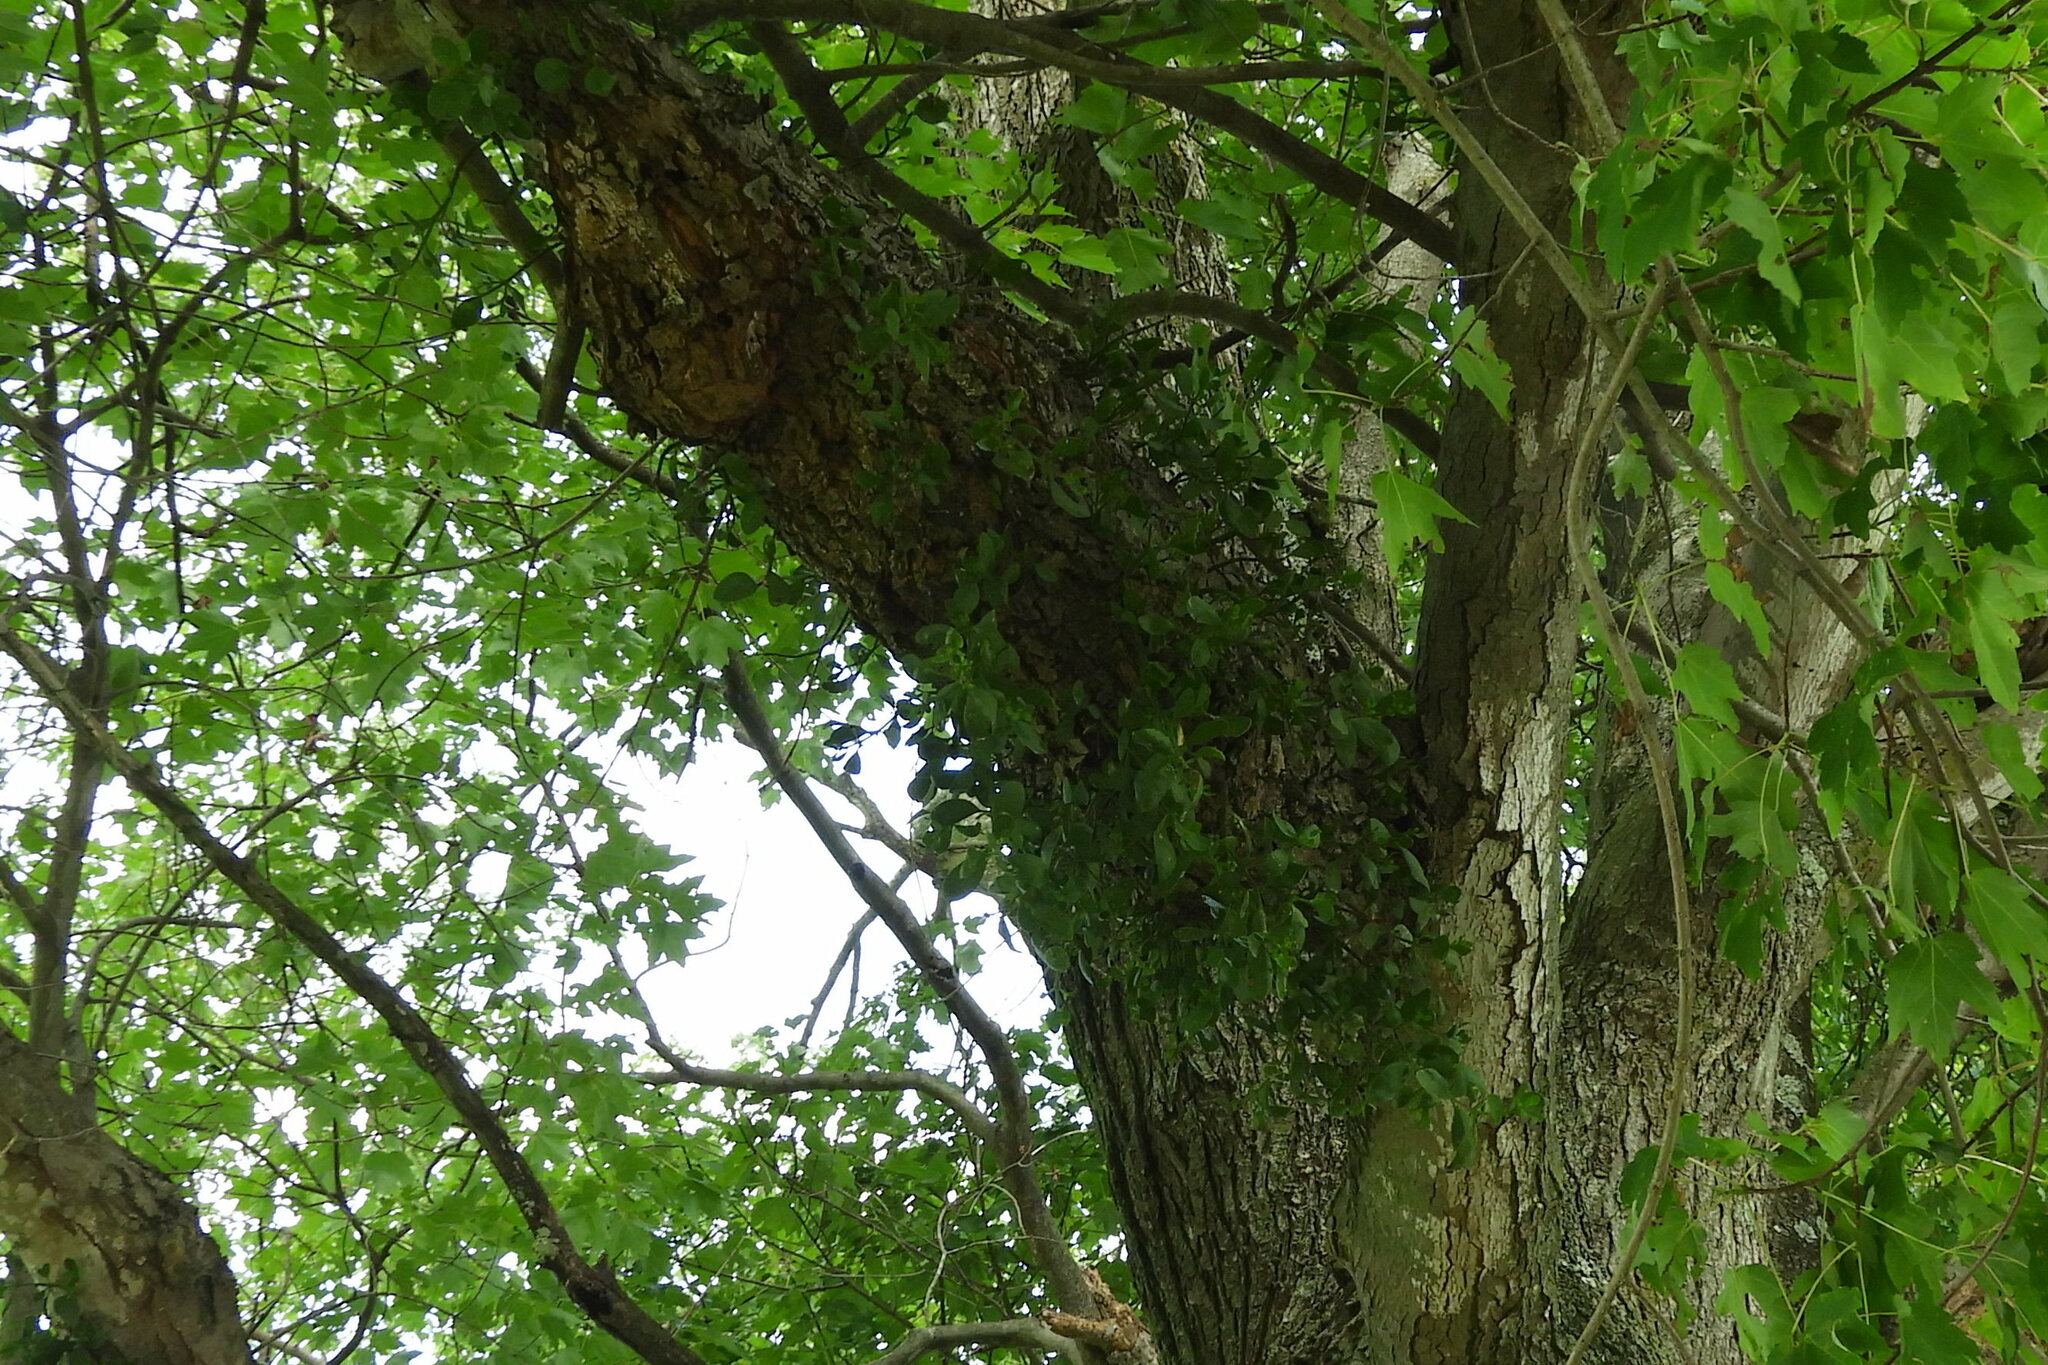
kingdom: Plantae
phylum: Tracheophyta
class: Magnoliopsida
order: Santalales
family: Viscaceae
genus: Phoradendron
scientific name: Phoradendron leucarpum
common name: Pacific mistletoe
